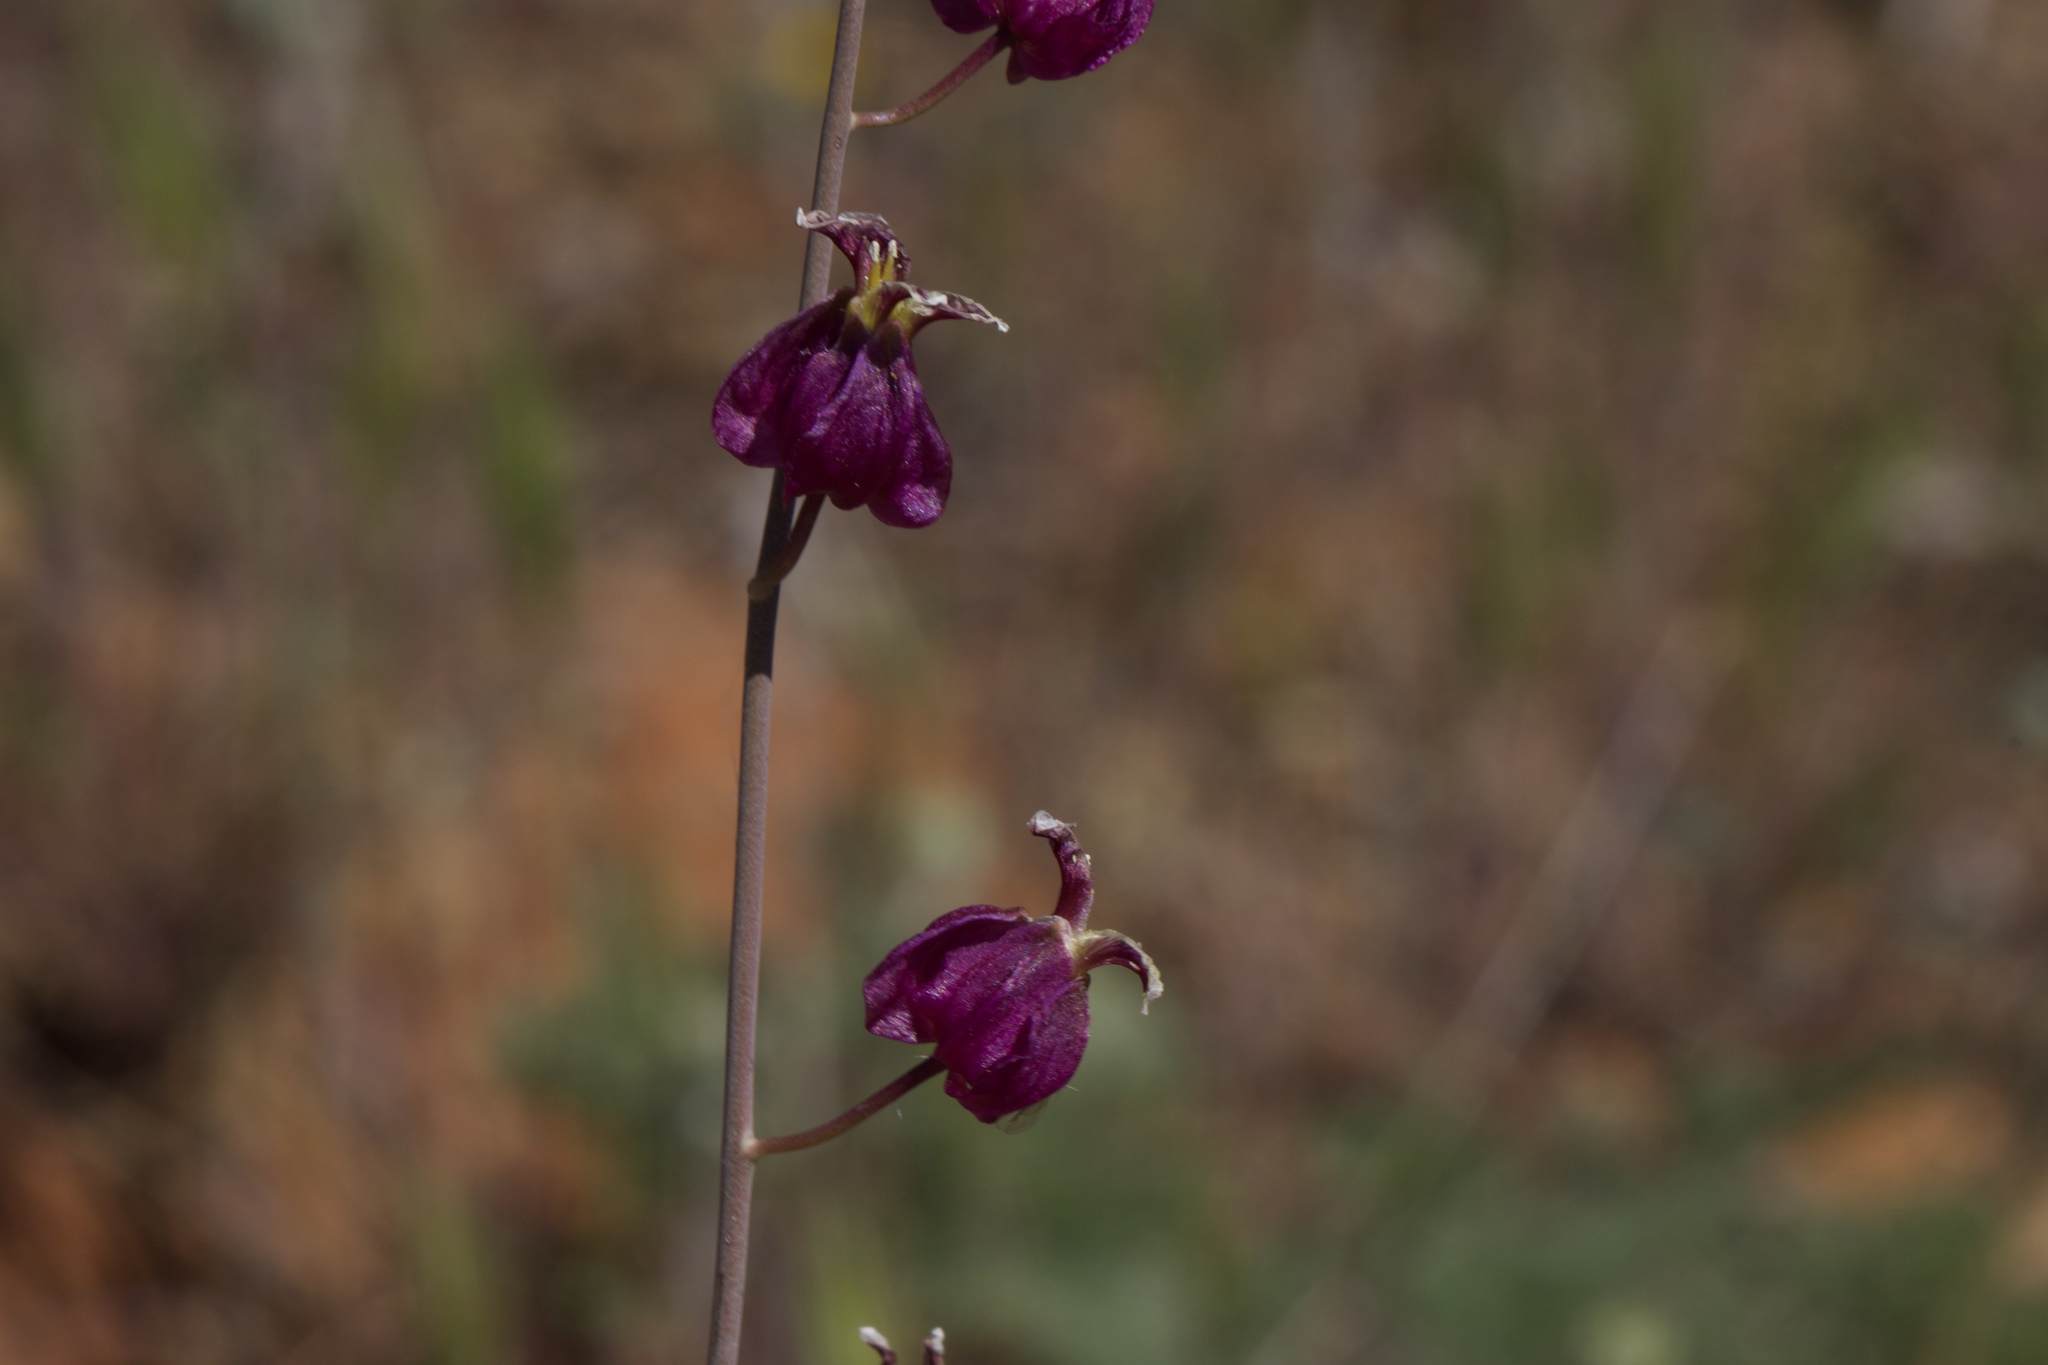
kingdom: Plantae
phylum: Tracheophyta
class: Magnoliopsida
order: Brassicales
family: Brassicaceae
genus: Streptanthus
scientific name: Streptanthus glandulosus
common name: Jewel-flower
